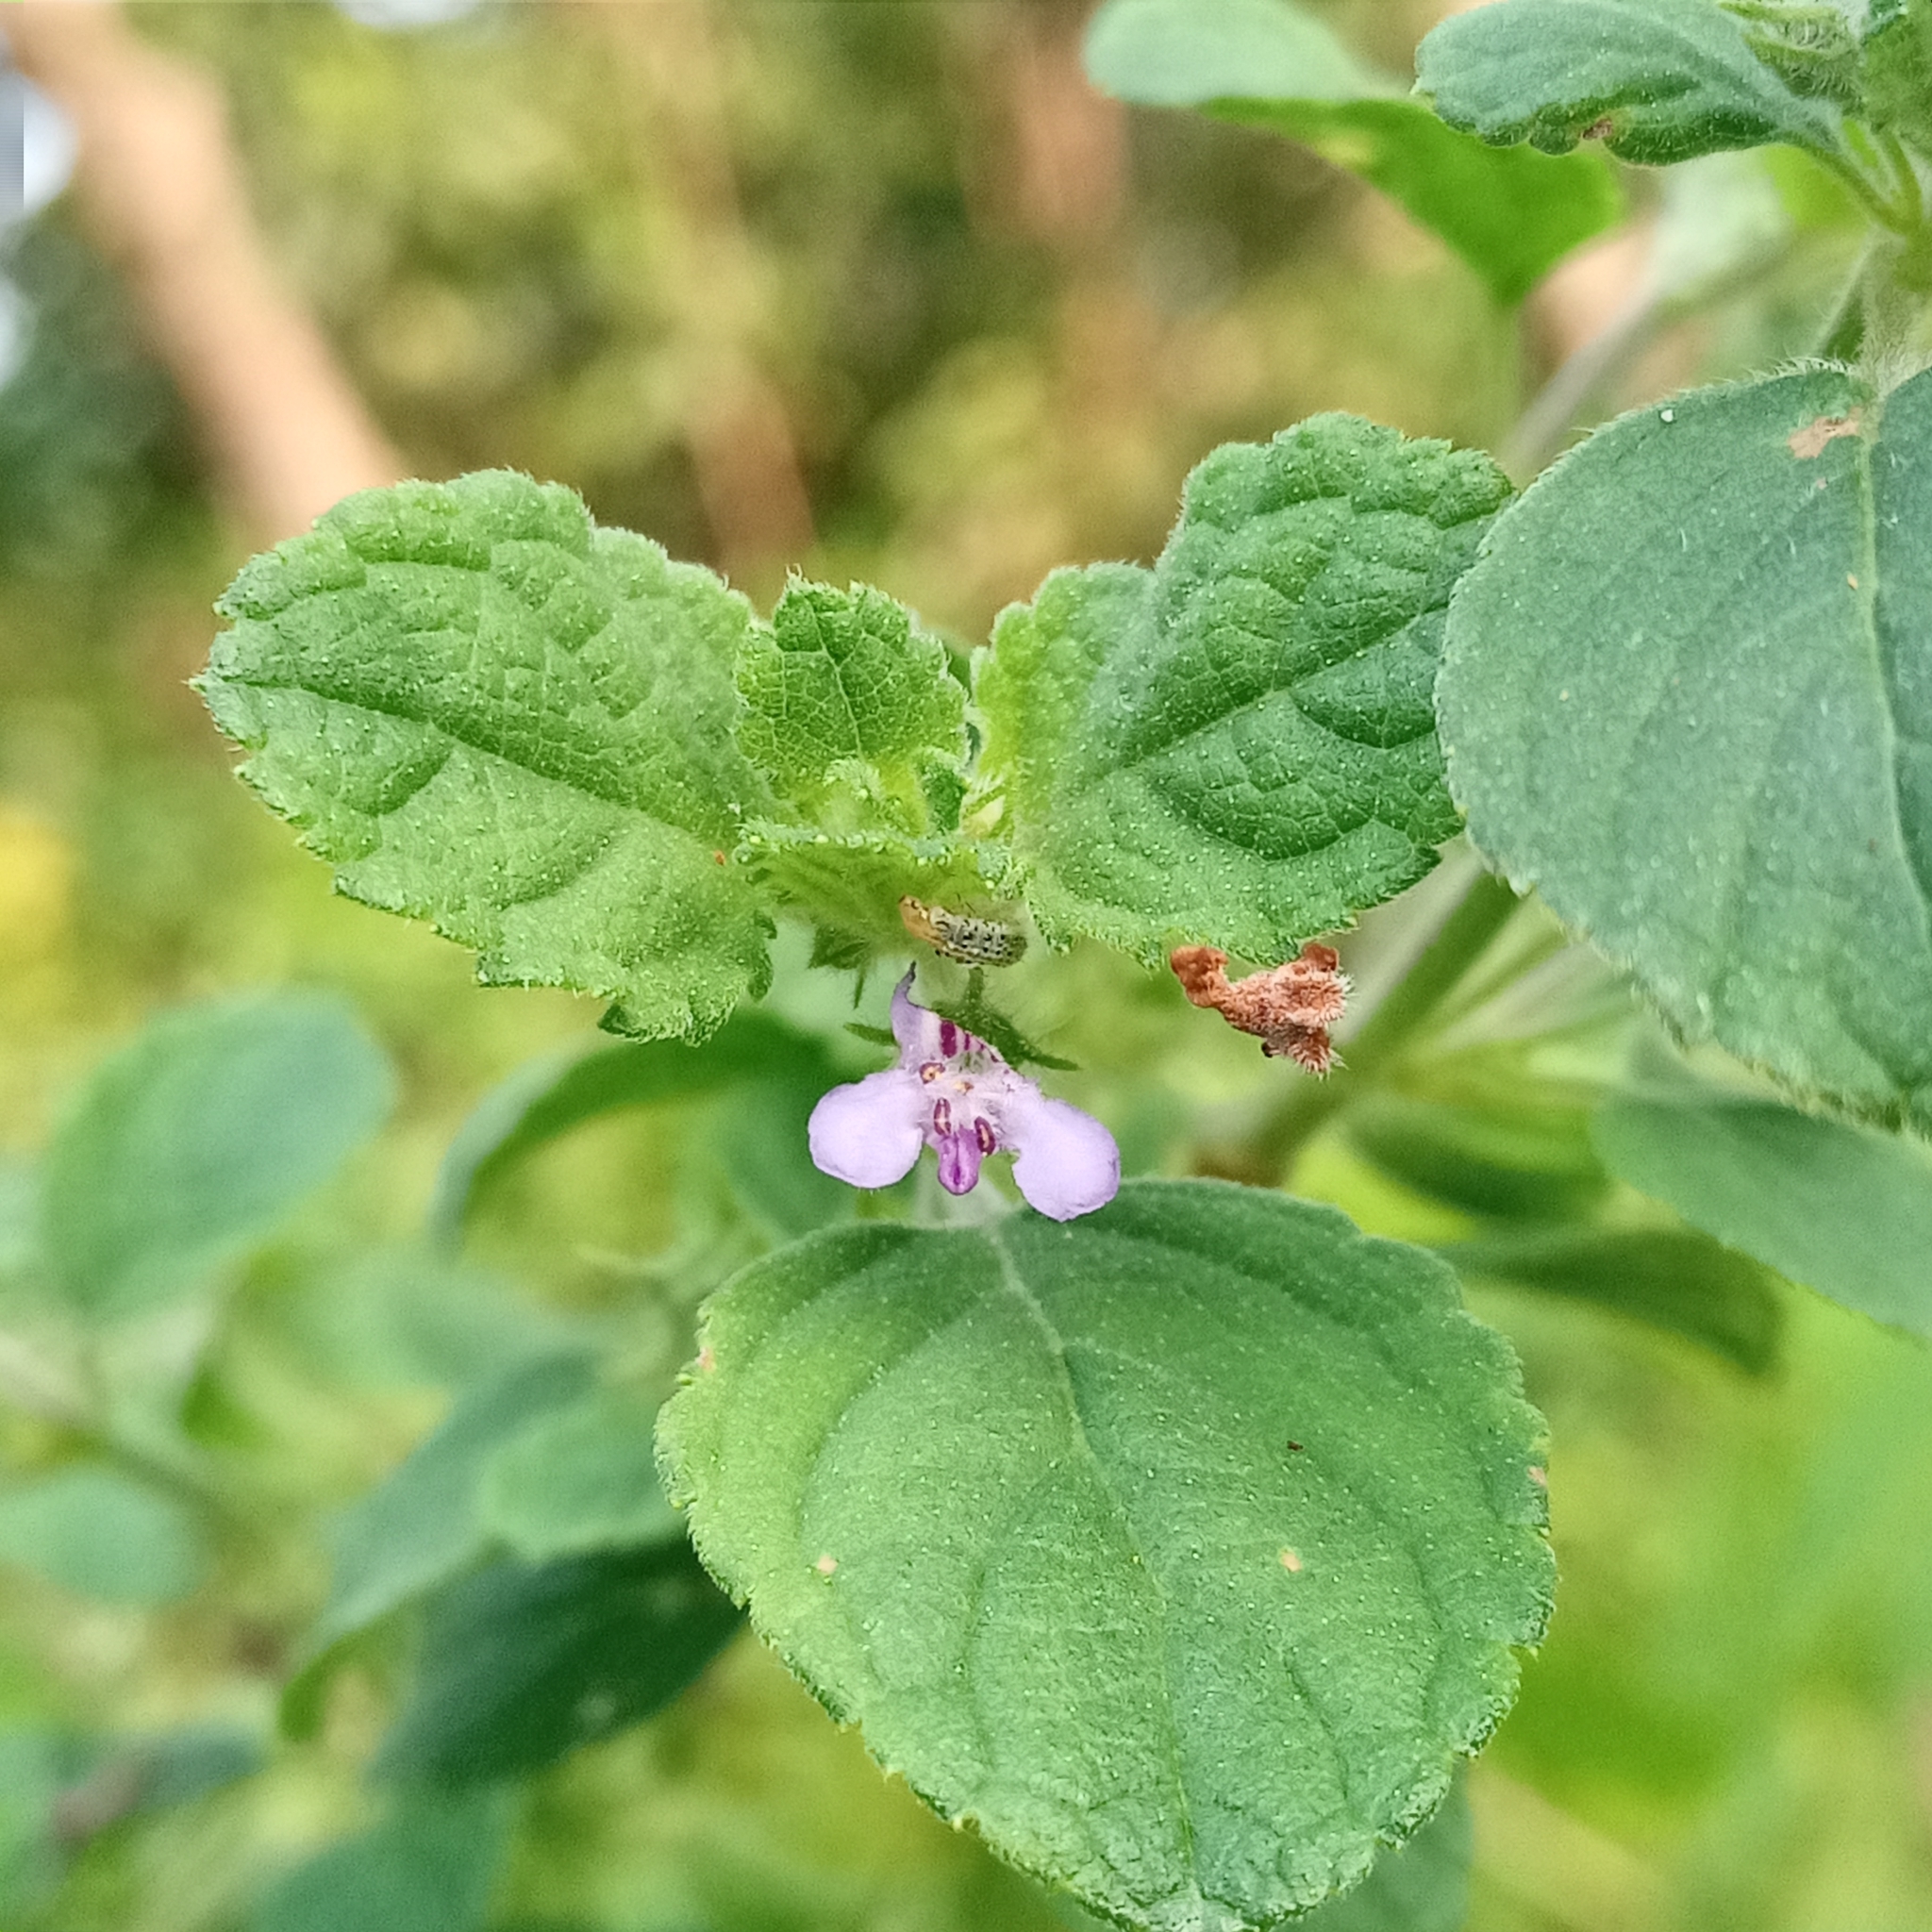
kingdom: Plantae
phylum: Tracheophyta
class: Magnoliopsida
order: Lamiales
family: Lamiaceae
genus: Mesosphaerum
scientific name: Mesosphaerum suaveolens
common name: Pignut
